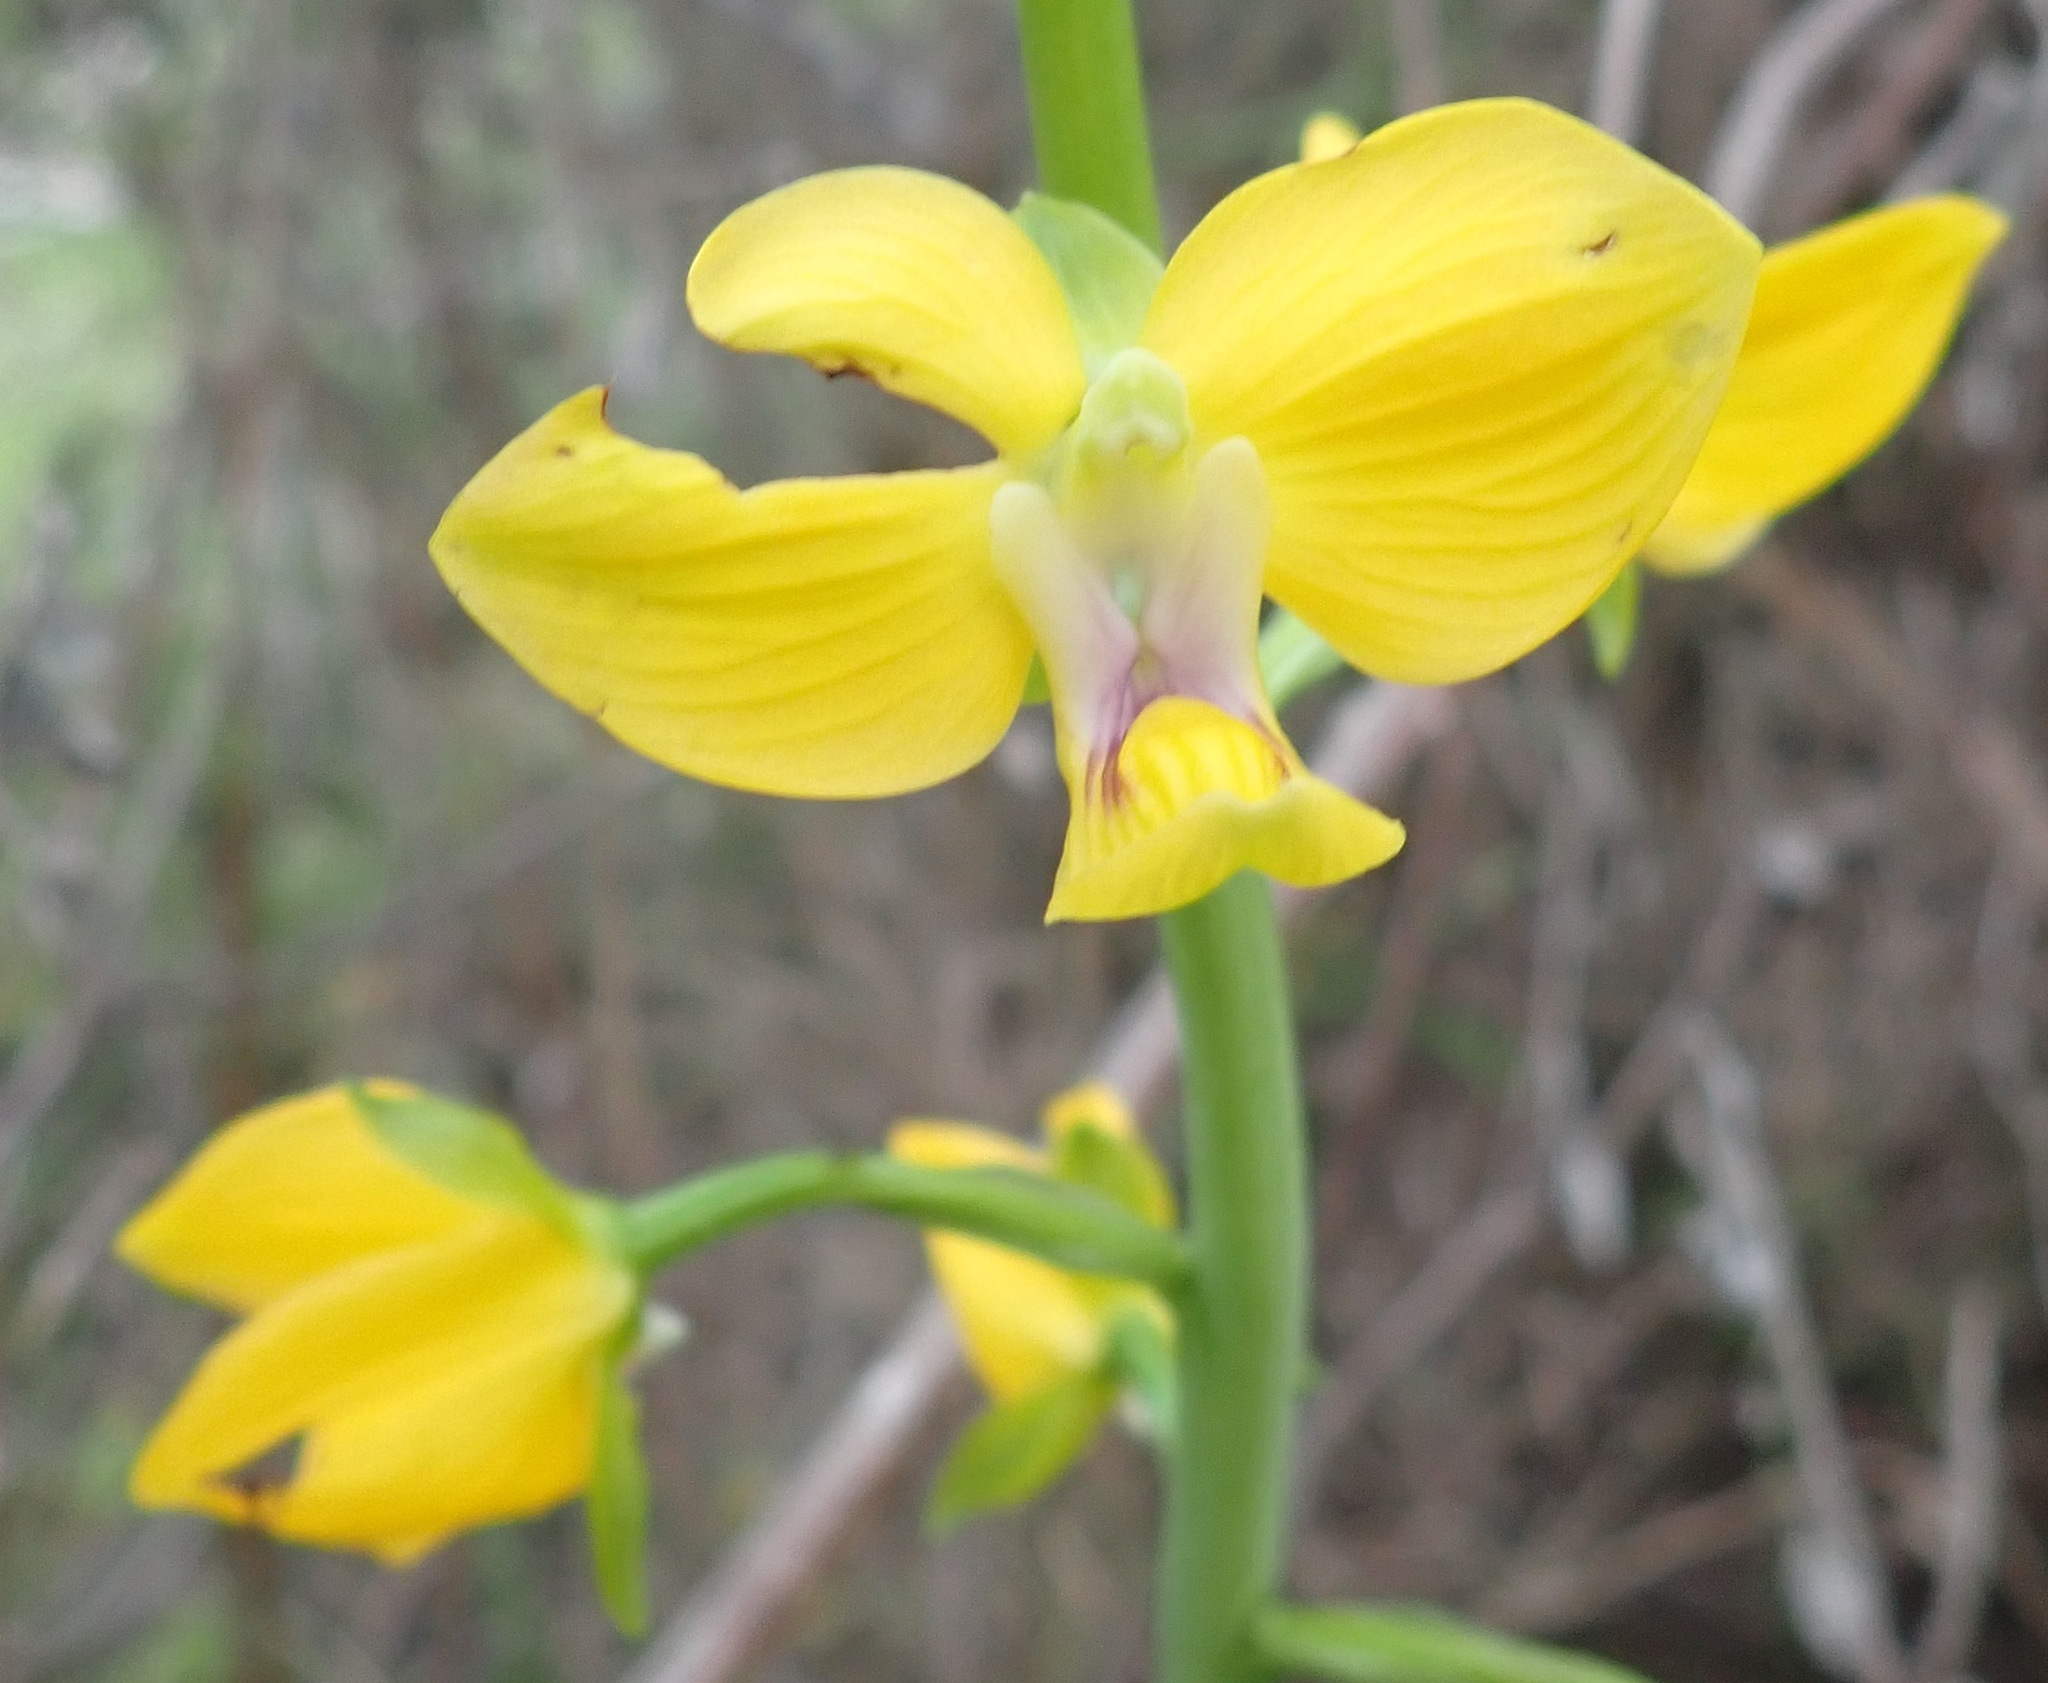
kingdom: Plantae
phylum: Tracheophyta
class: Liliopsida
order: Asparagales
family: Orchidaceae
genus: Eulophia
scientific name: Eulophia speciosa
